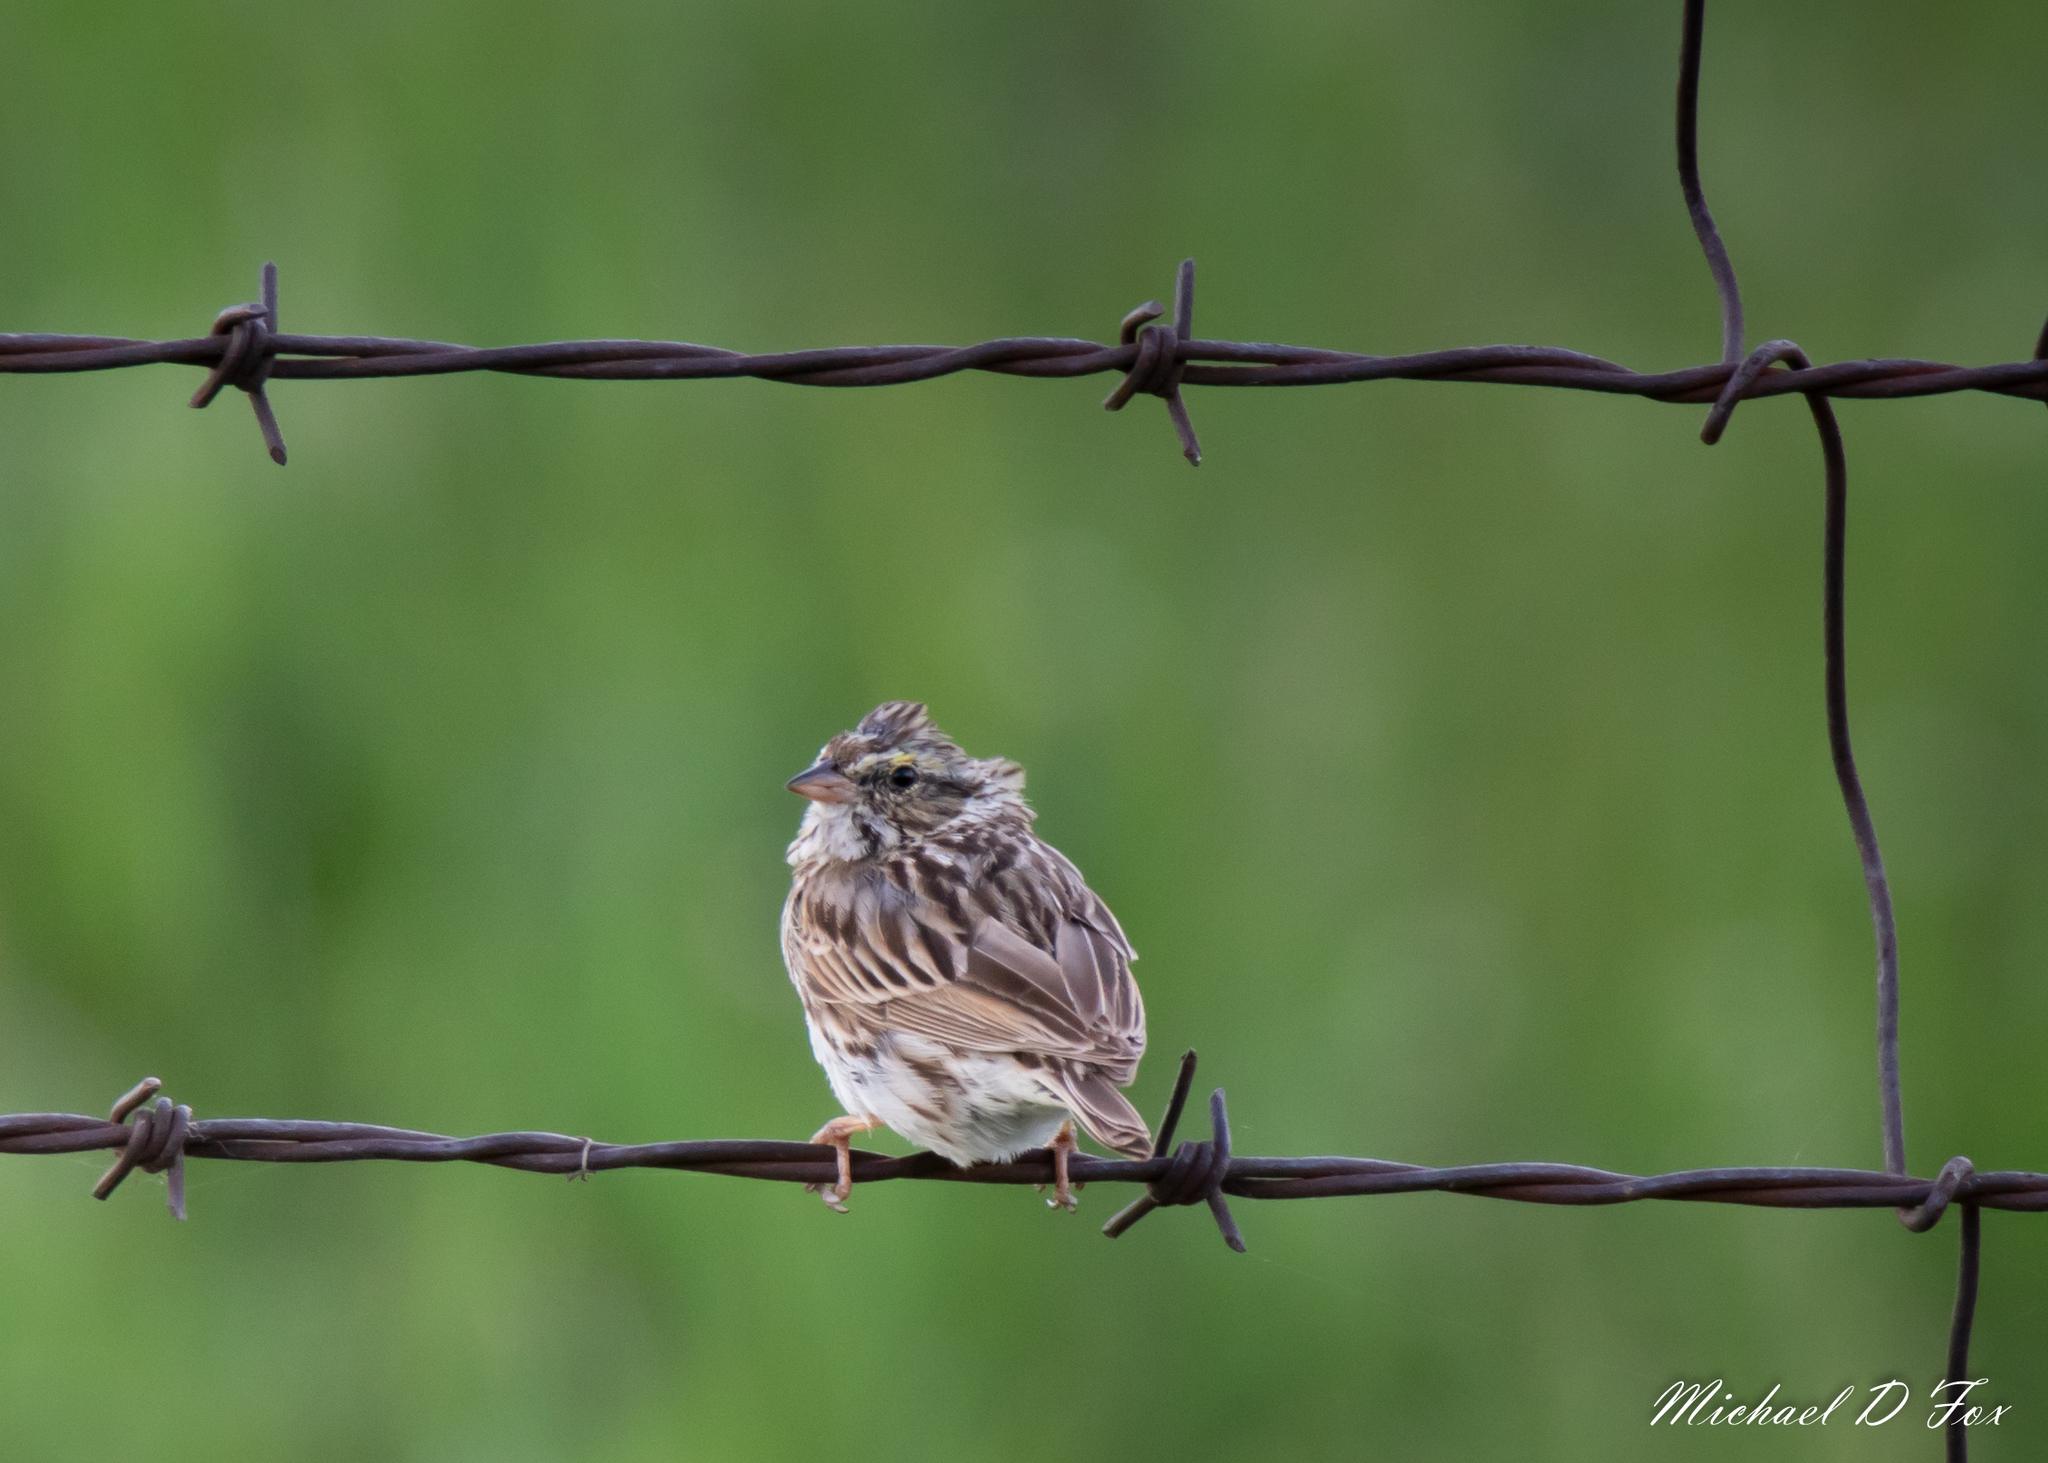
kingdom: Animalia
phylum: Chordata
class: Aves
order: Passeriformes
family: Passerellidae
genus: Passerculus
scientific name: Passerculus sandwichensis
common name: Savannah sparrow
